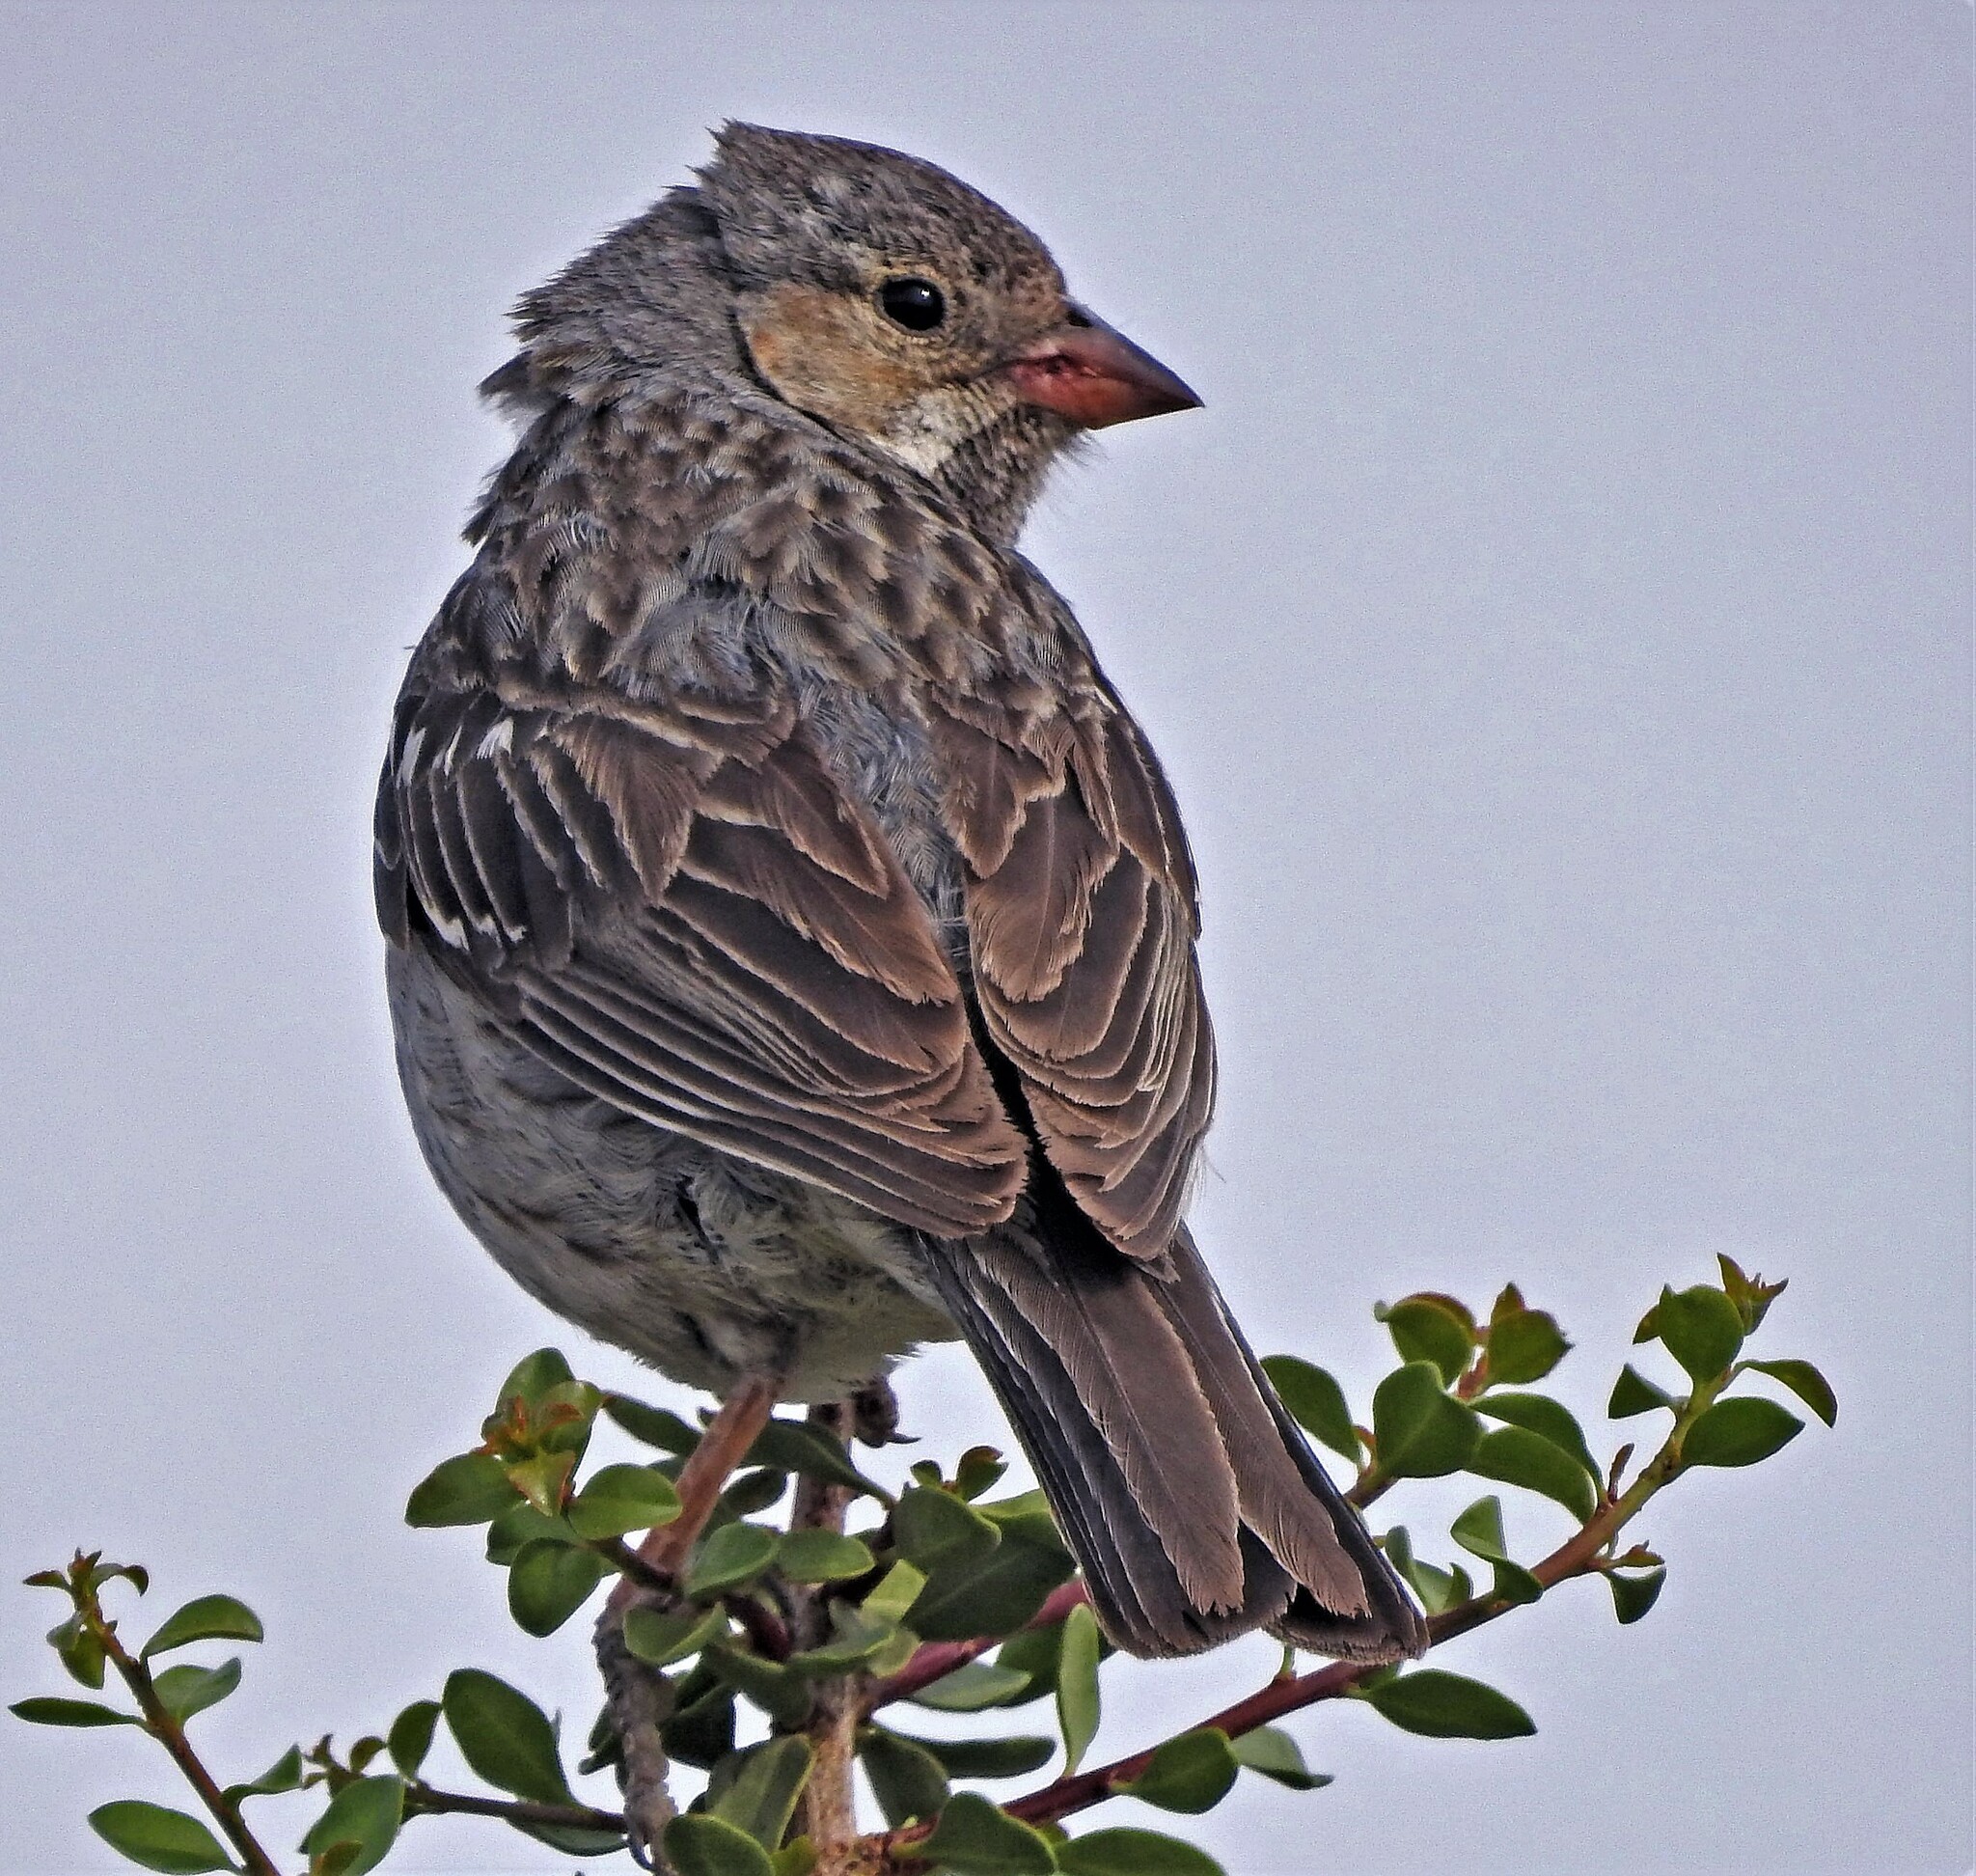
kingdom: Animalia
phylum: Chordata
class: Aves
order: Passeriformes
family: Thraupidae
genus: Rhopospina
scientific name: Rhopospina fruticeti
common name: Mourning sierra finch
